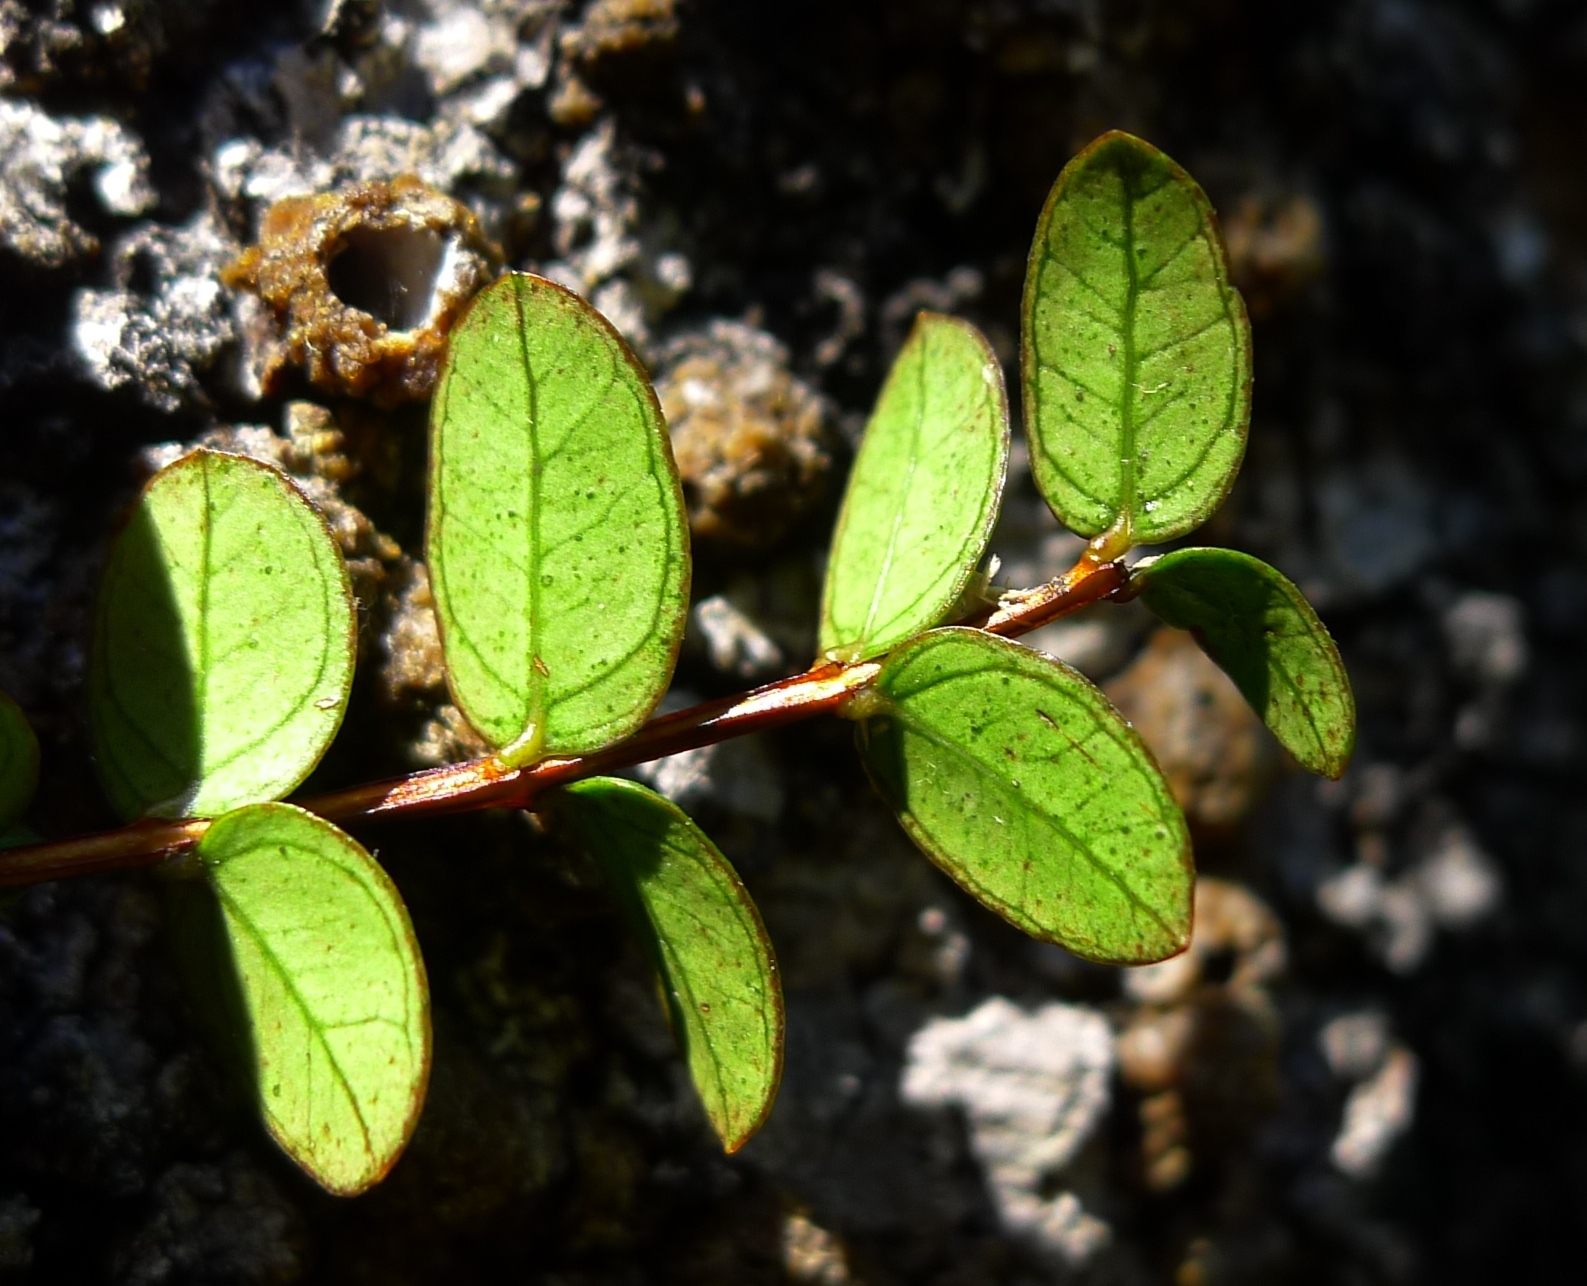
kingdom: Plantae
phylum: Tracheophyta
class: Magnoliopsida
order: Myrtales
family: Myrtaceae
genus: Metrosideros
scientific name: Metrosideros diffusa
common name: Small ratavine
